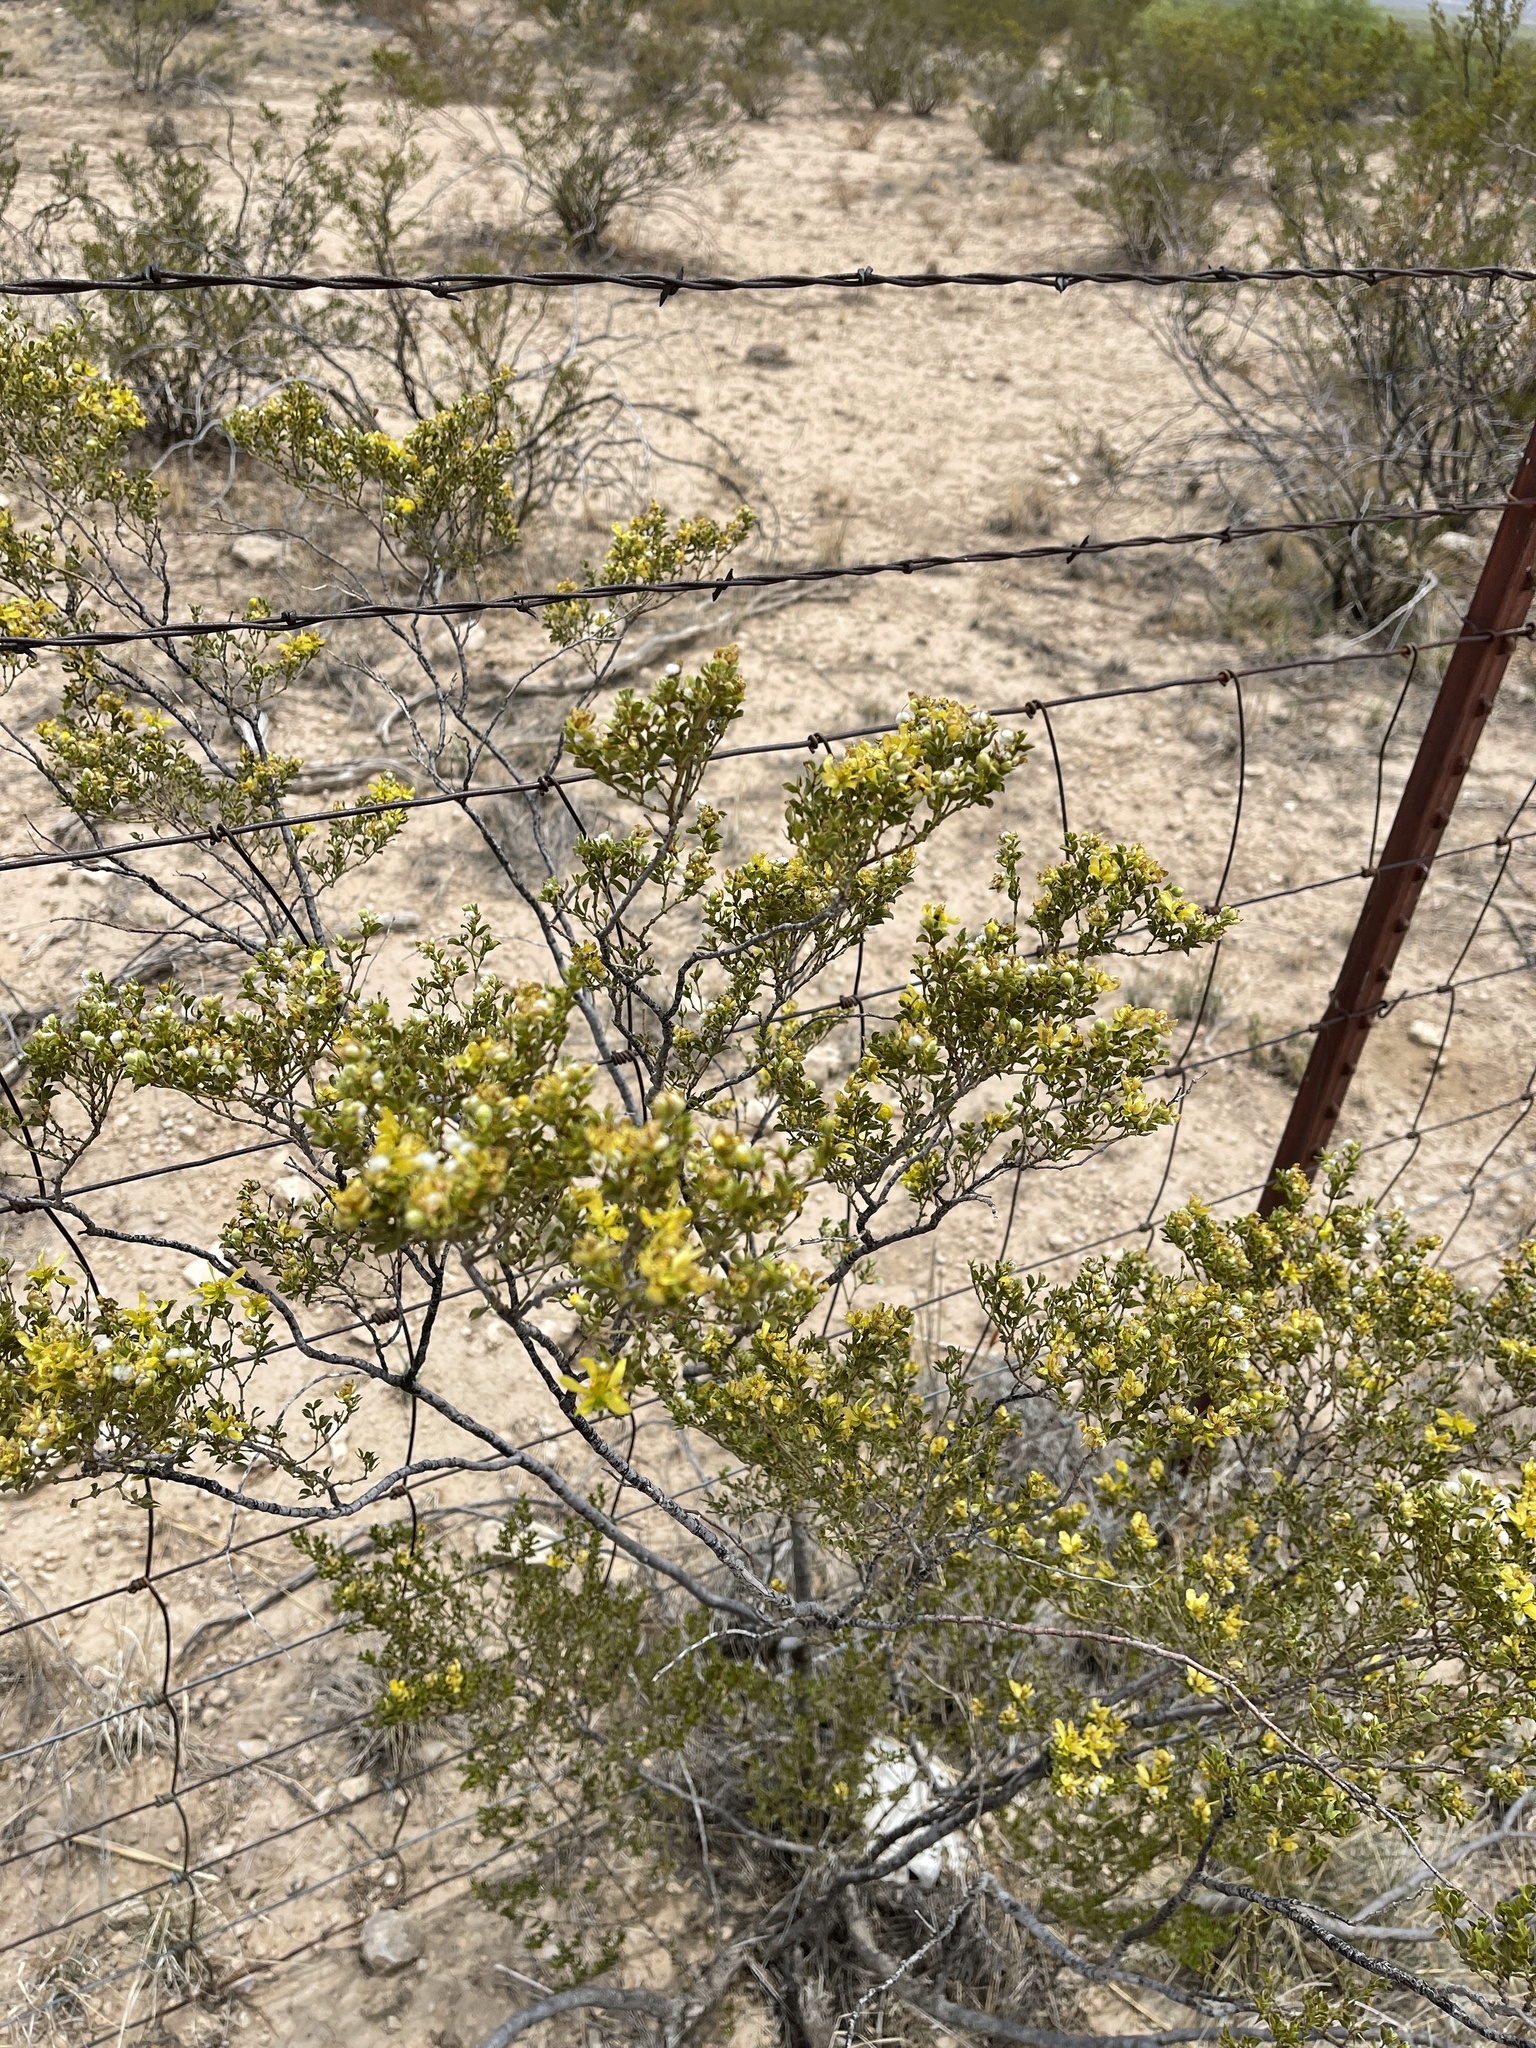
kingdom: Plantae
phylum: Tracheophyta
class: Magnoliopsida
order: Zygophyllales
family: Zygophyllaceae
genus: Larrea
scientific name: Larrea tridentata
